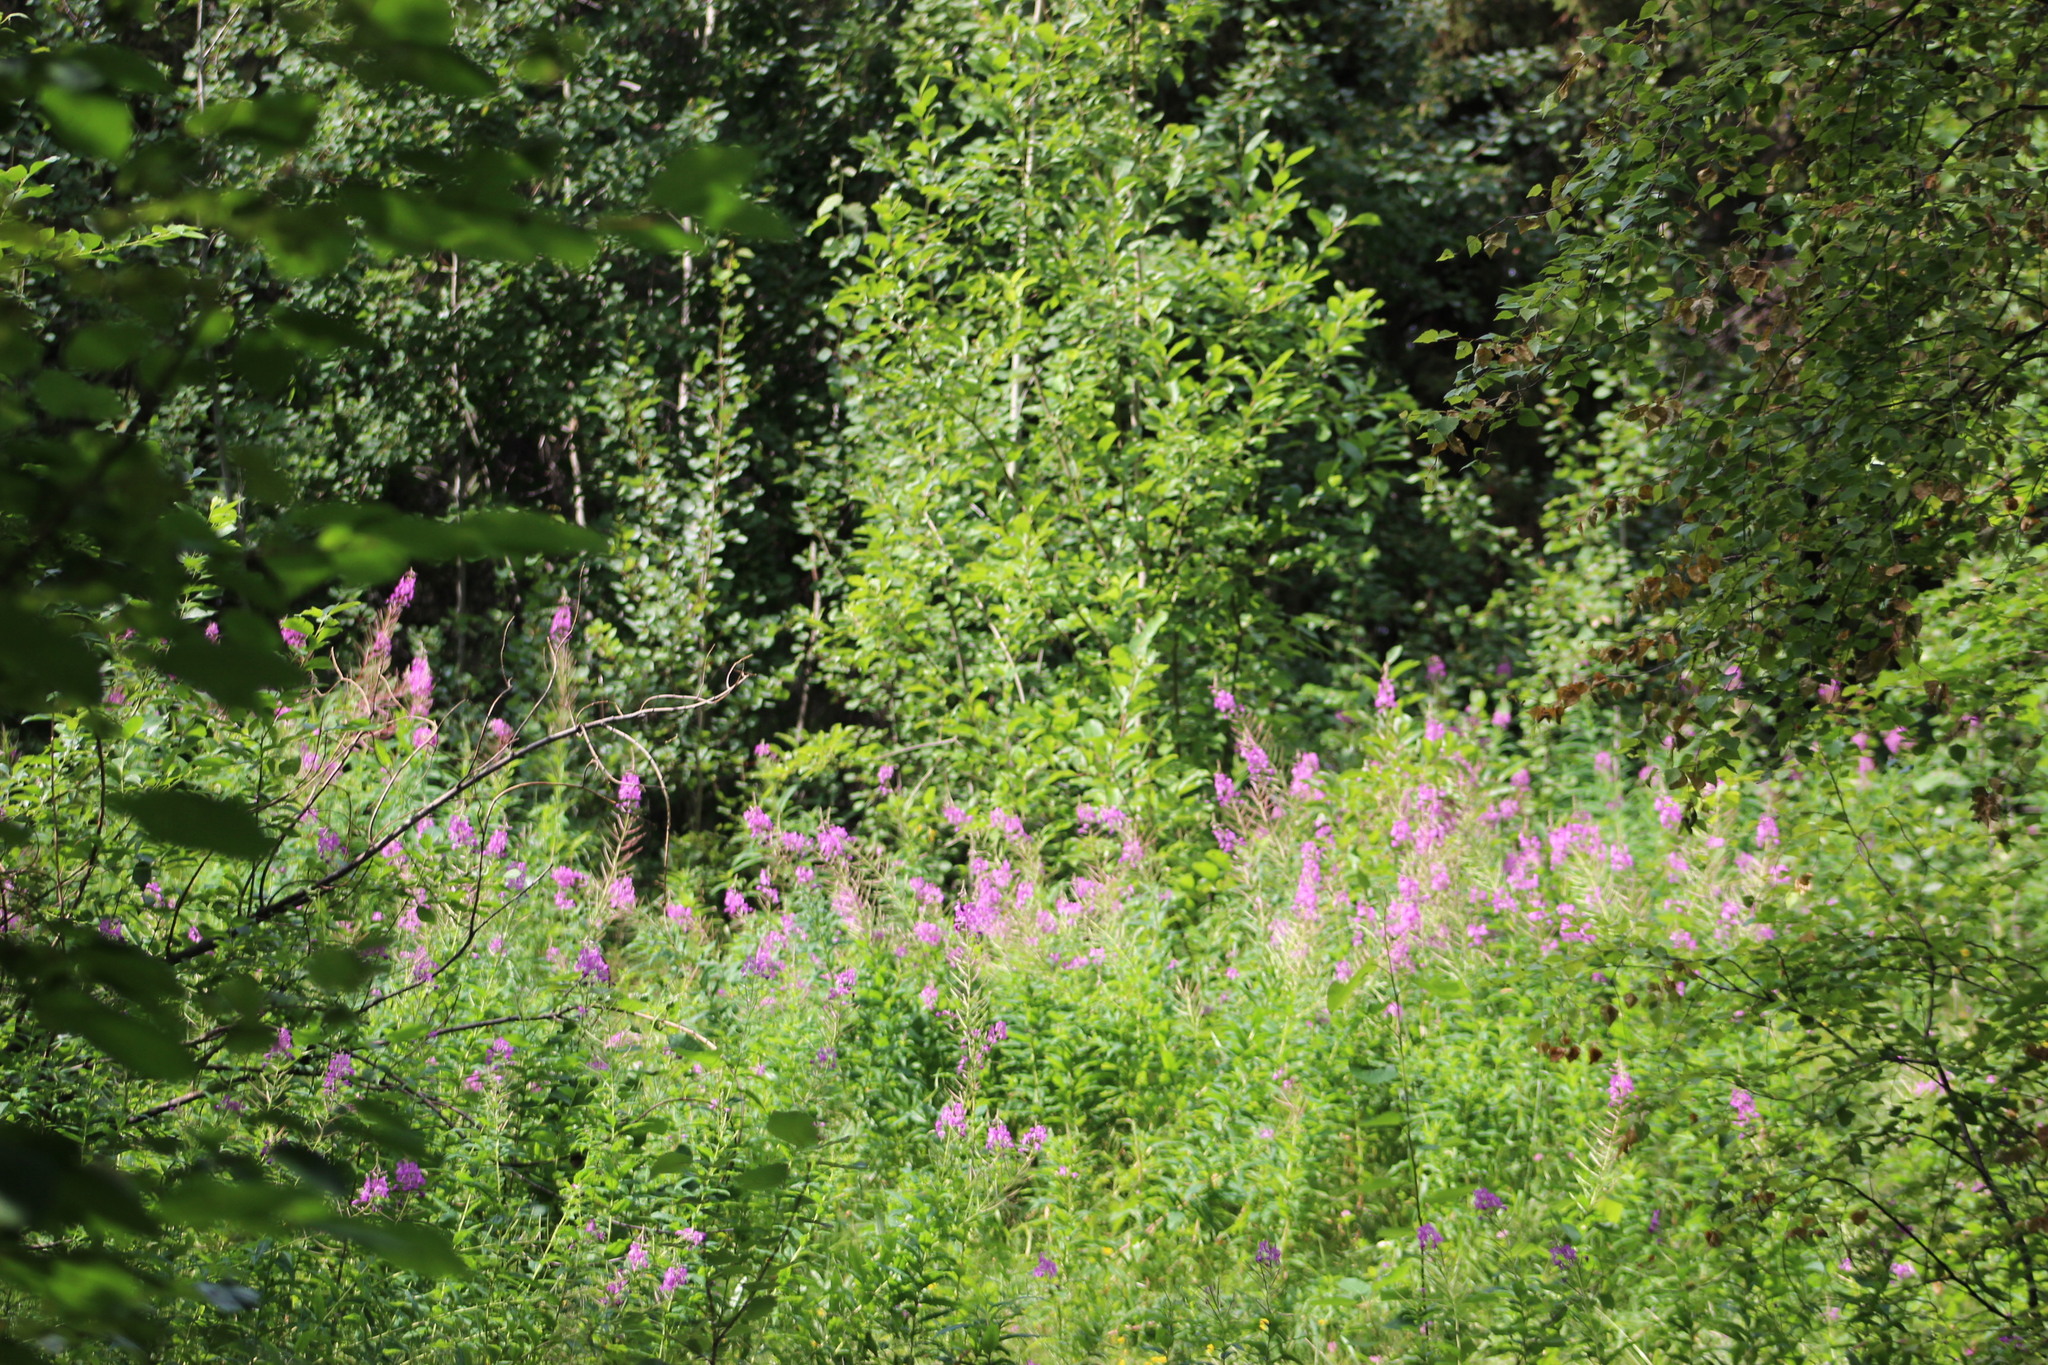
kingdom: Plantae
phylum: Tracheophyta
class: Magnoliopsida
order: Myrtales
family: Onagraceae
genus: Chamaenerion
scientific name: Chamaenerion angustifolium
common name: Fireweed
